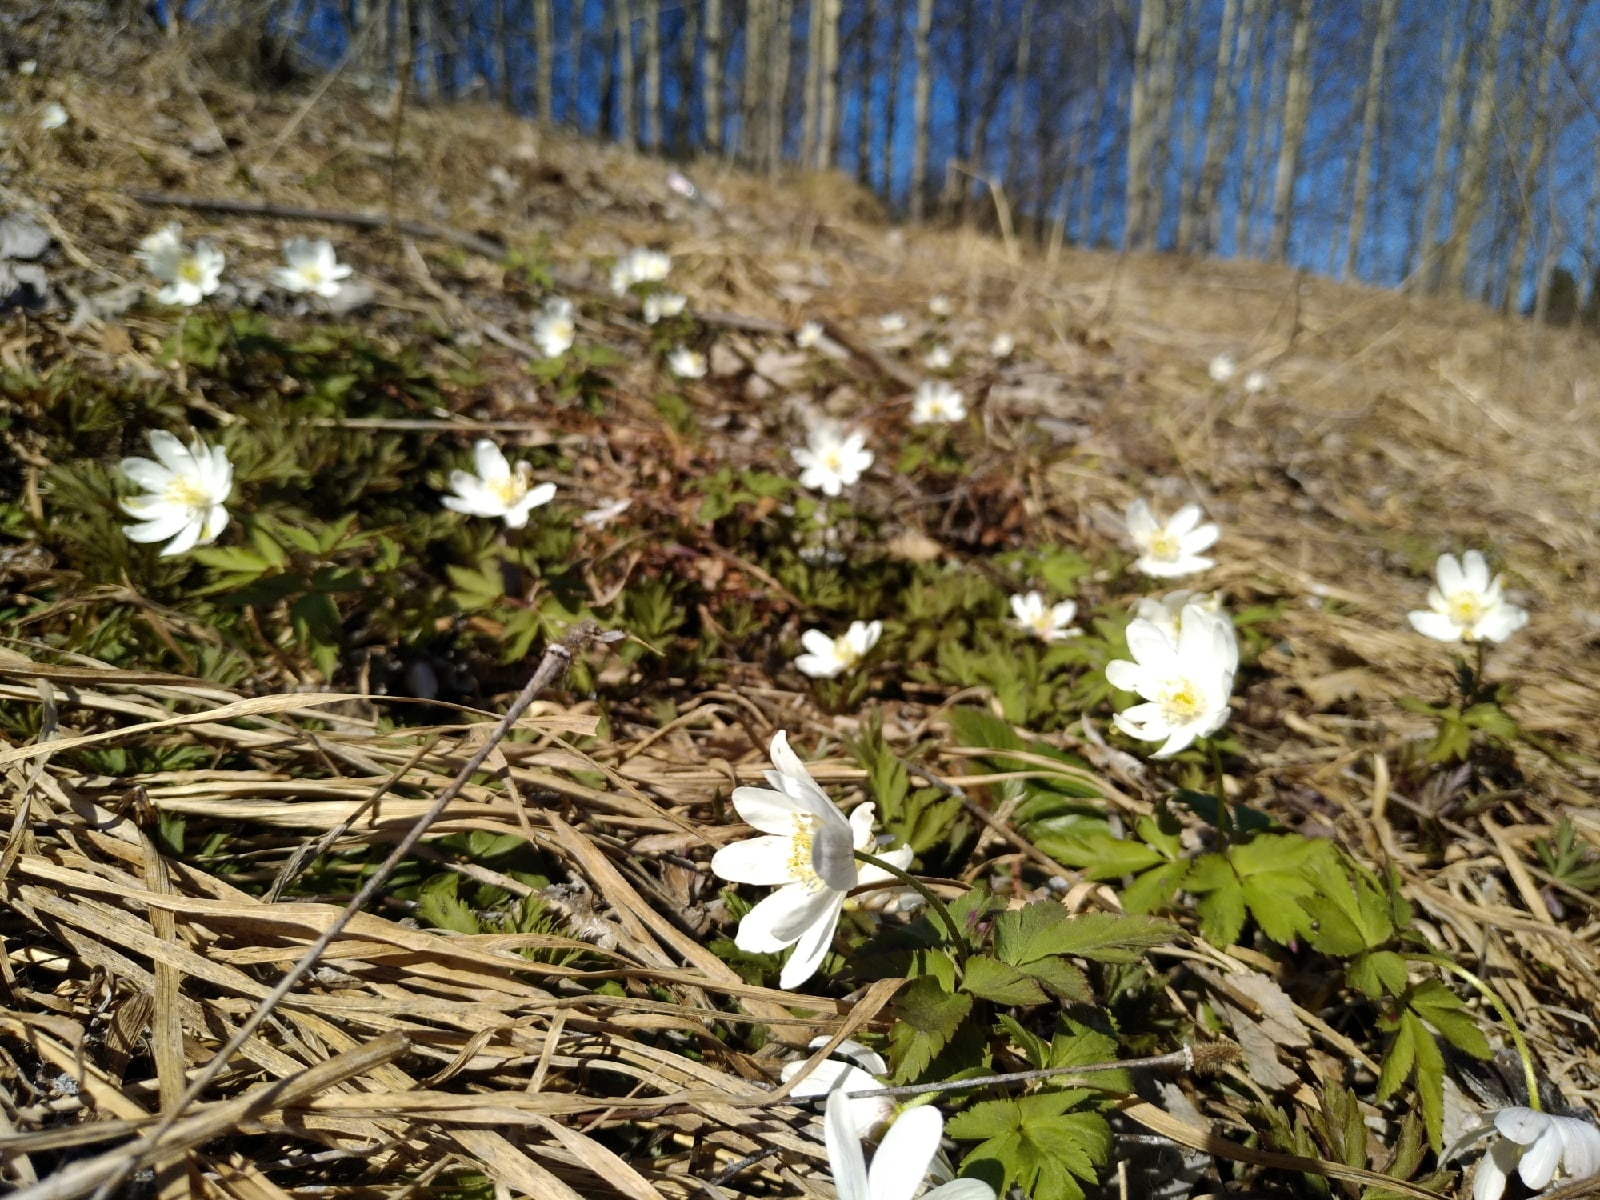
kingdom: Plantae
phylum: Tracheophyta
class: Magnoliopsida
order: Ranunculales
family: Ranunculaceae
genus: Anemone
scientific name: Anemone altaica
